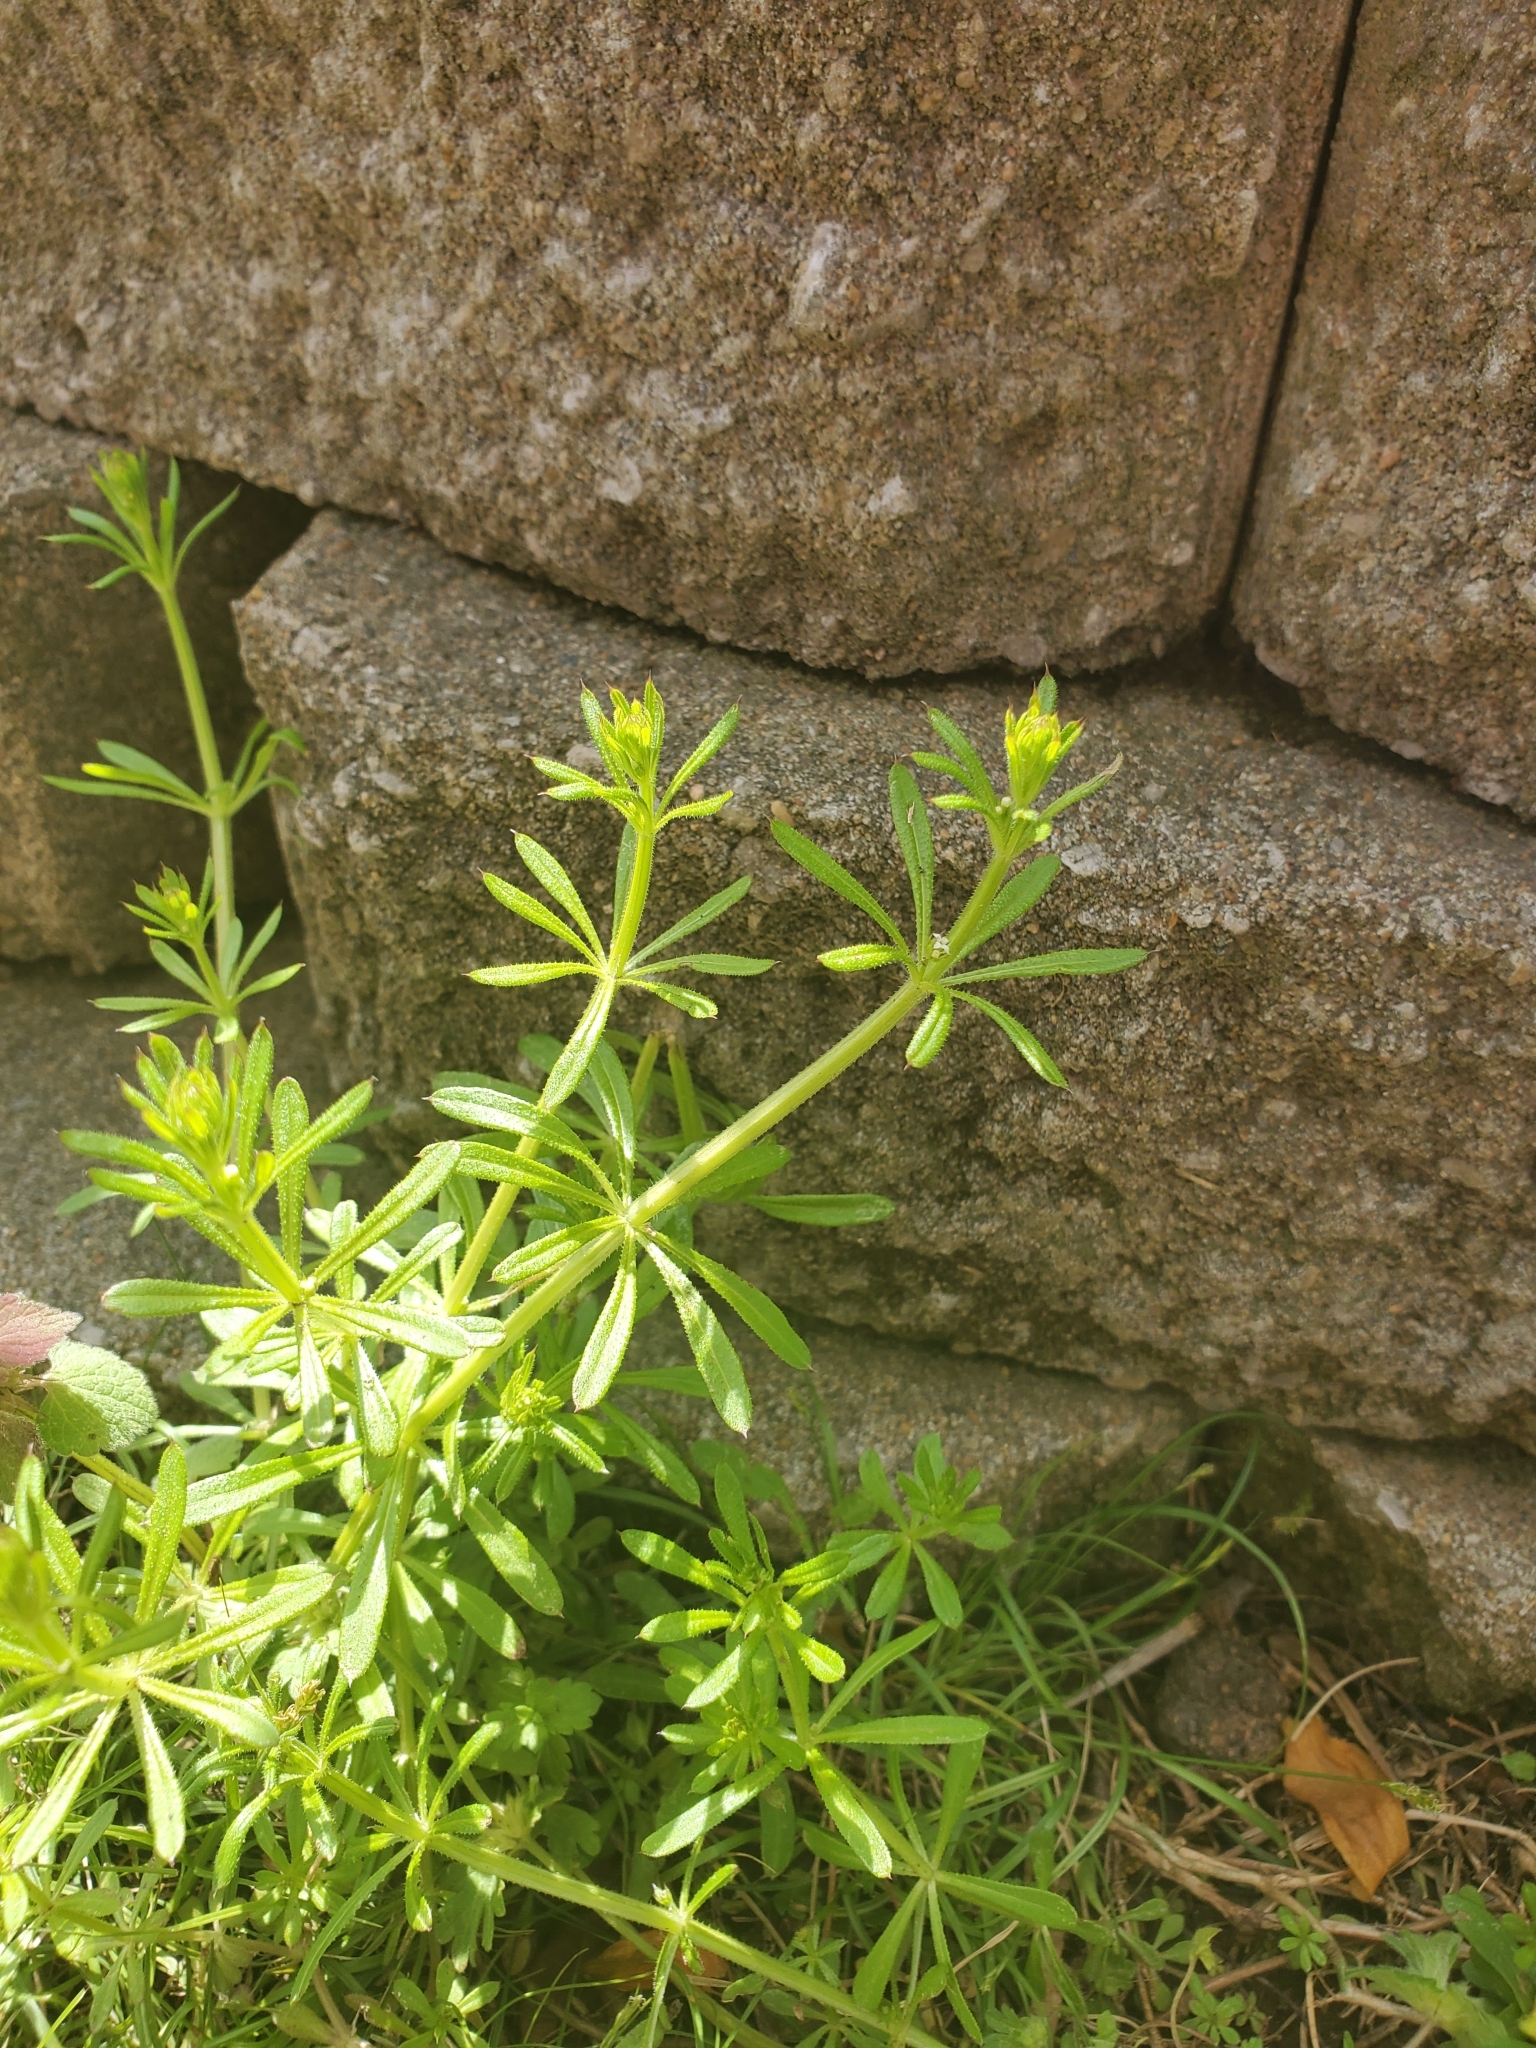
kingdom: Plantae
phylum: Tracheophyta
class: Magnoliopsida
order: Gentianales
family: Rubiaceae
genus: Galium
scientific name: Galium aparine
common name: Cleavers
